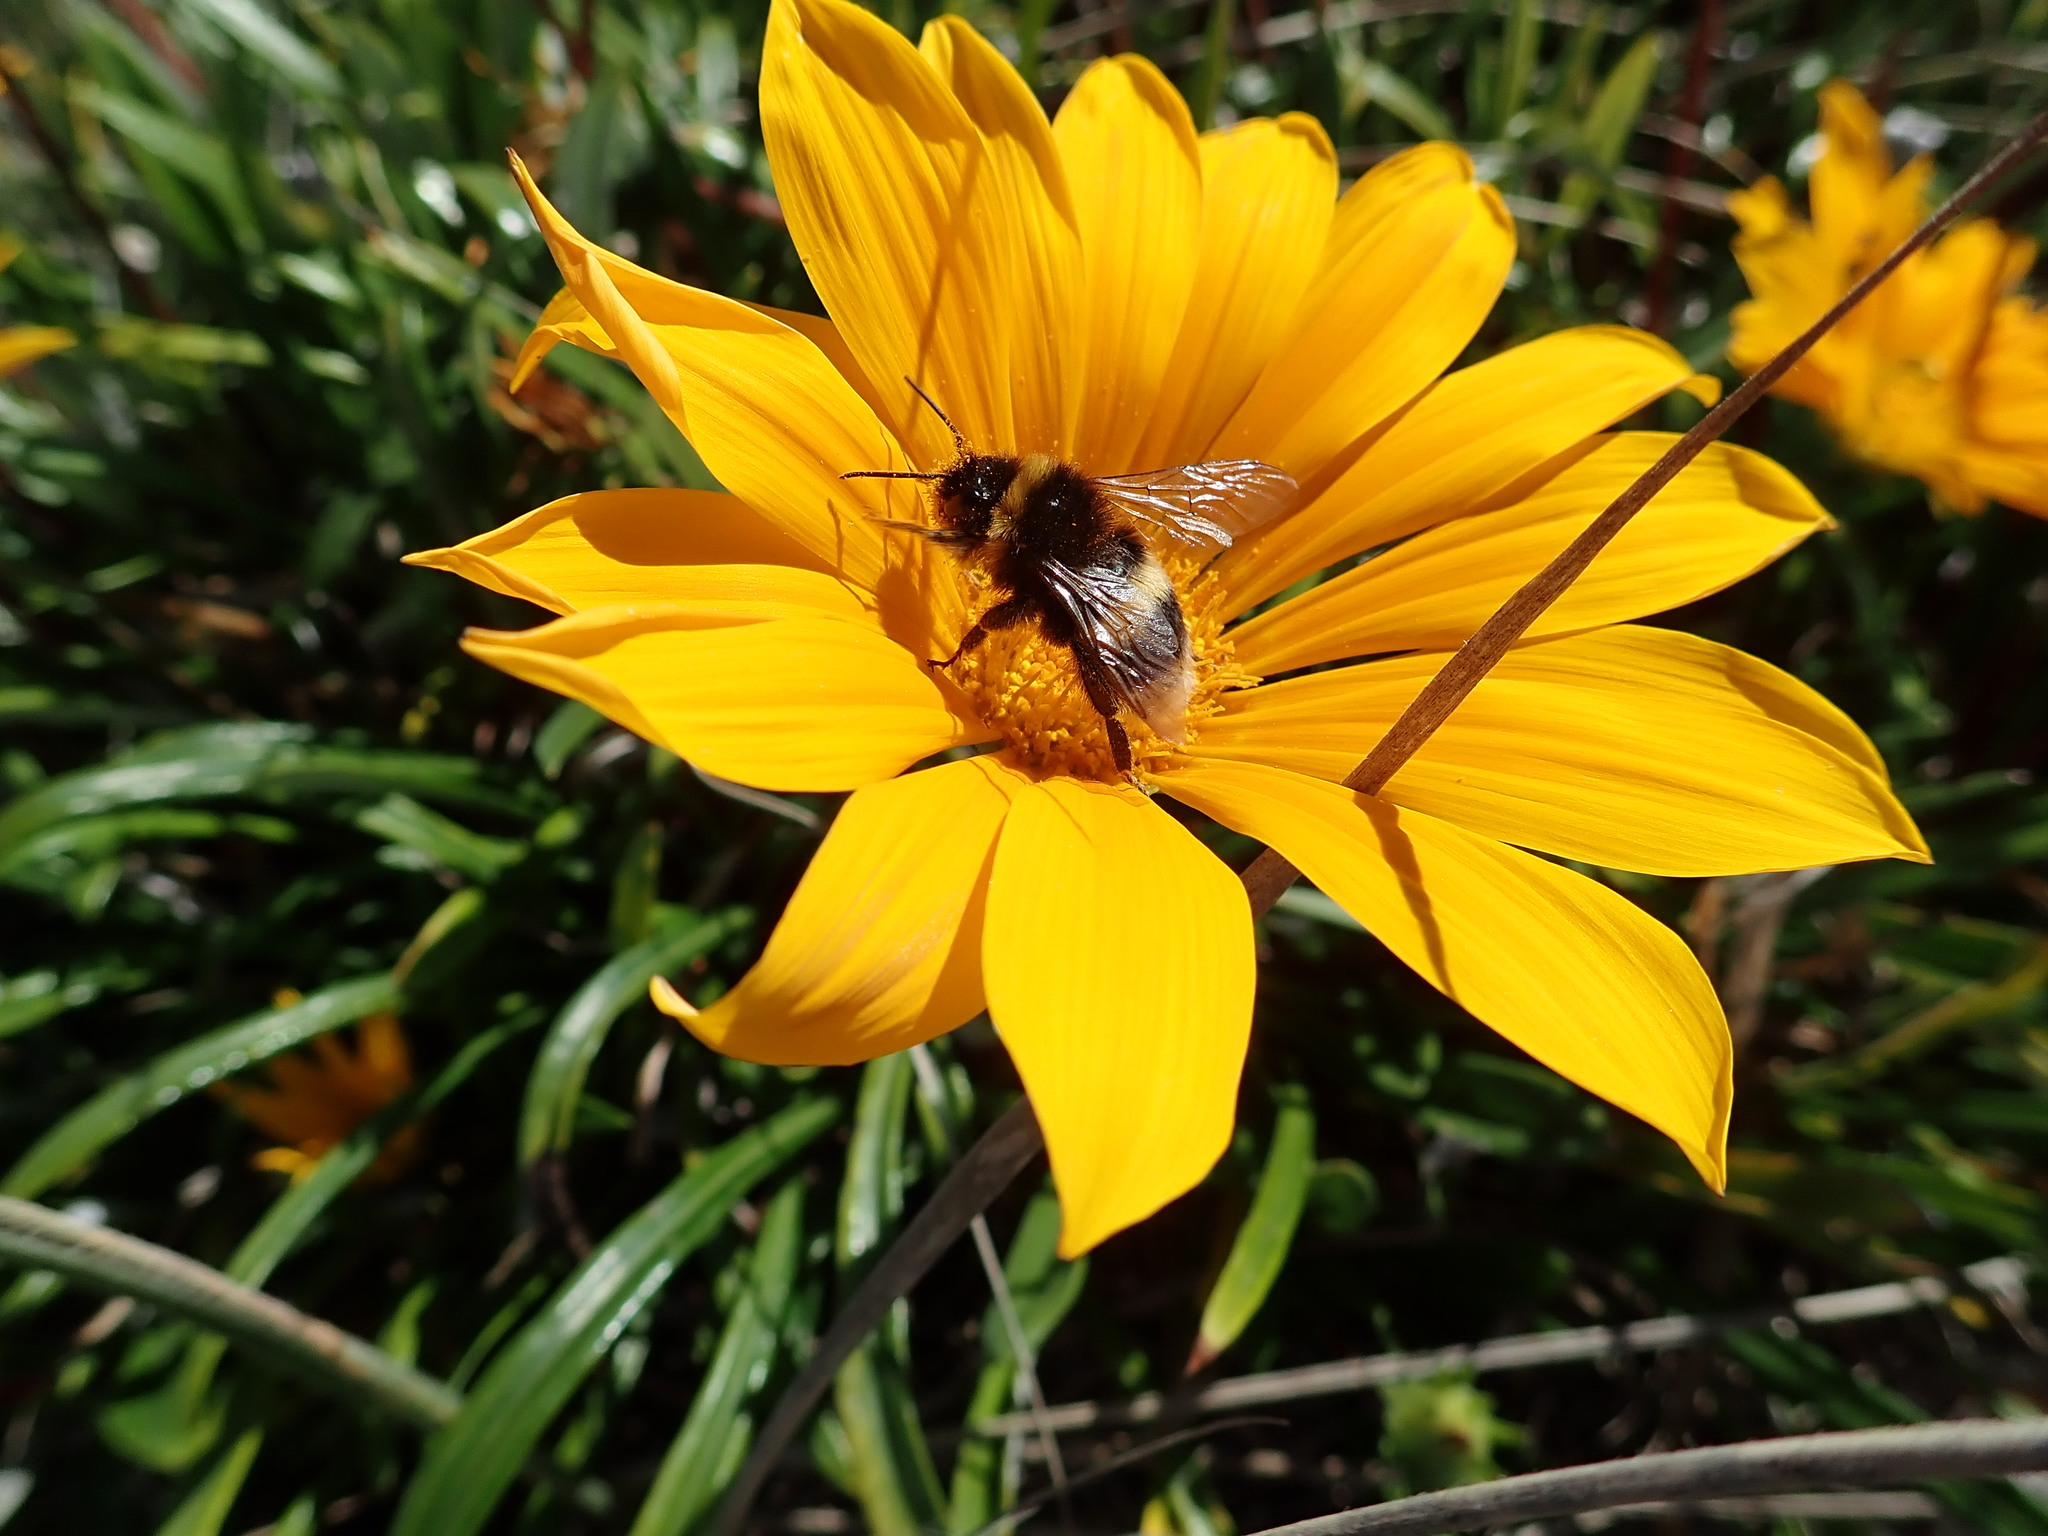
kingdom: Animalia
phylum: Arthropoda
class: Insecta
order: Hymenoptera
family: Apidae
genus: Bombus
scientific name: Bombus terrestris
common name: Buff-tailed bumblebee
